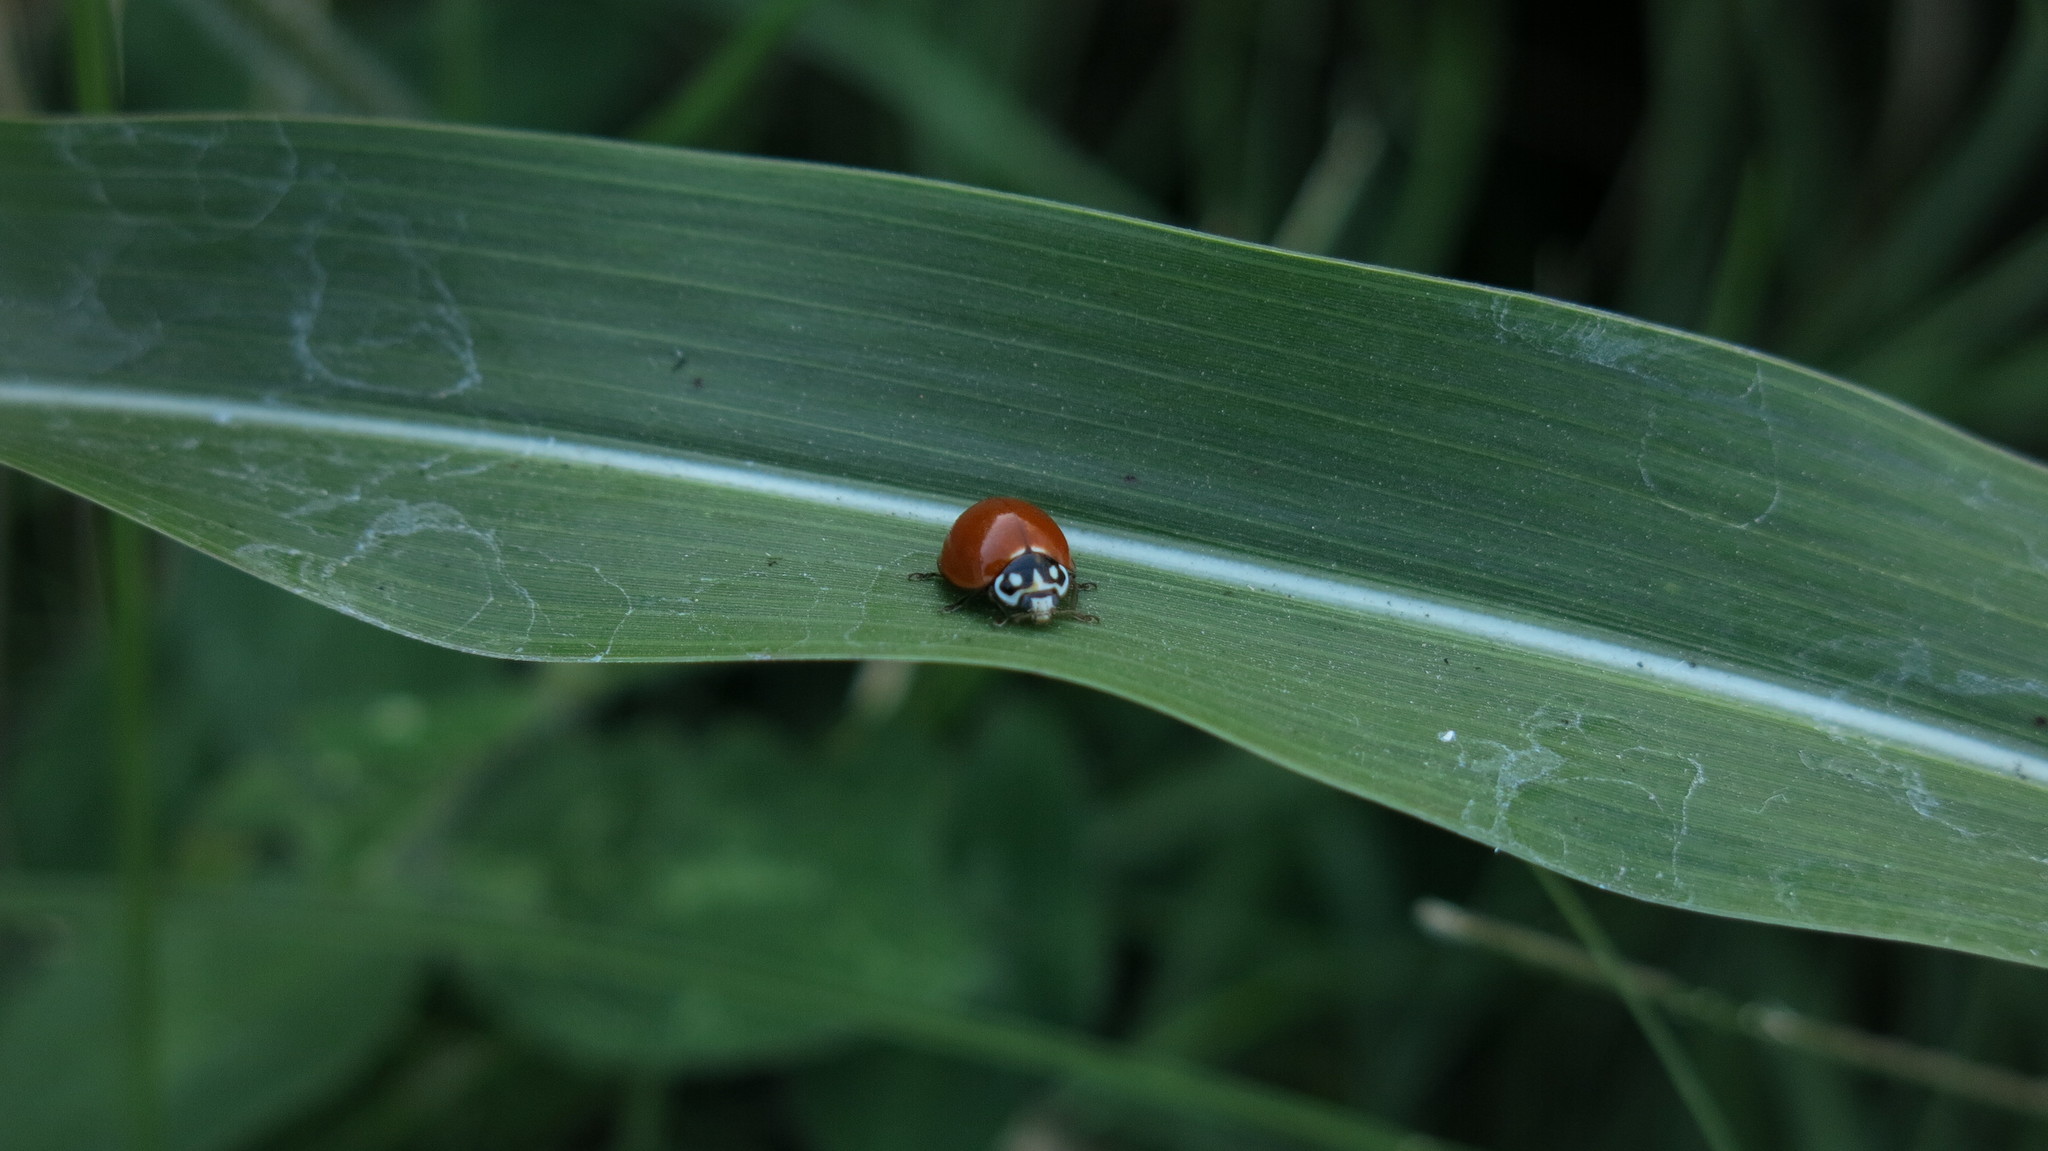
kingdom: Animalia
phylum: Arthropoda
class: Insecta
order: Coleoptera
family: Coccinellidae
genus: Cycloneda
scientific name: Cycloneda sanguinea
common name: Ladybird beetle
